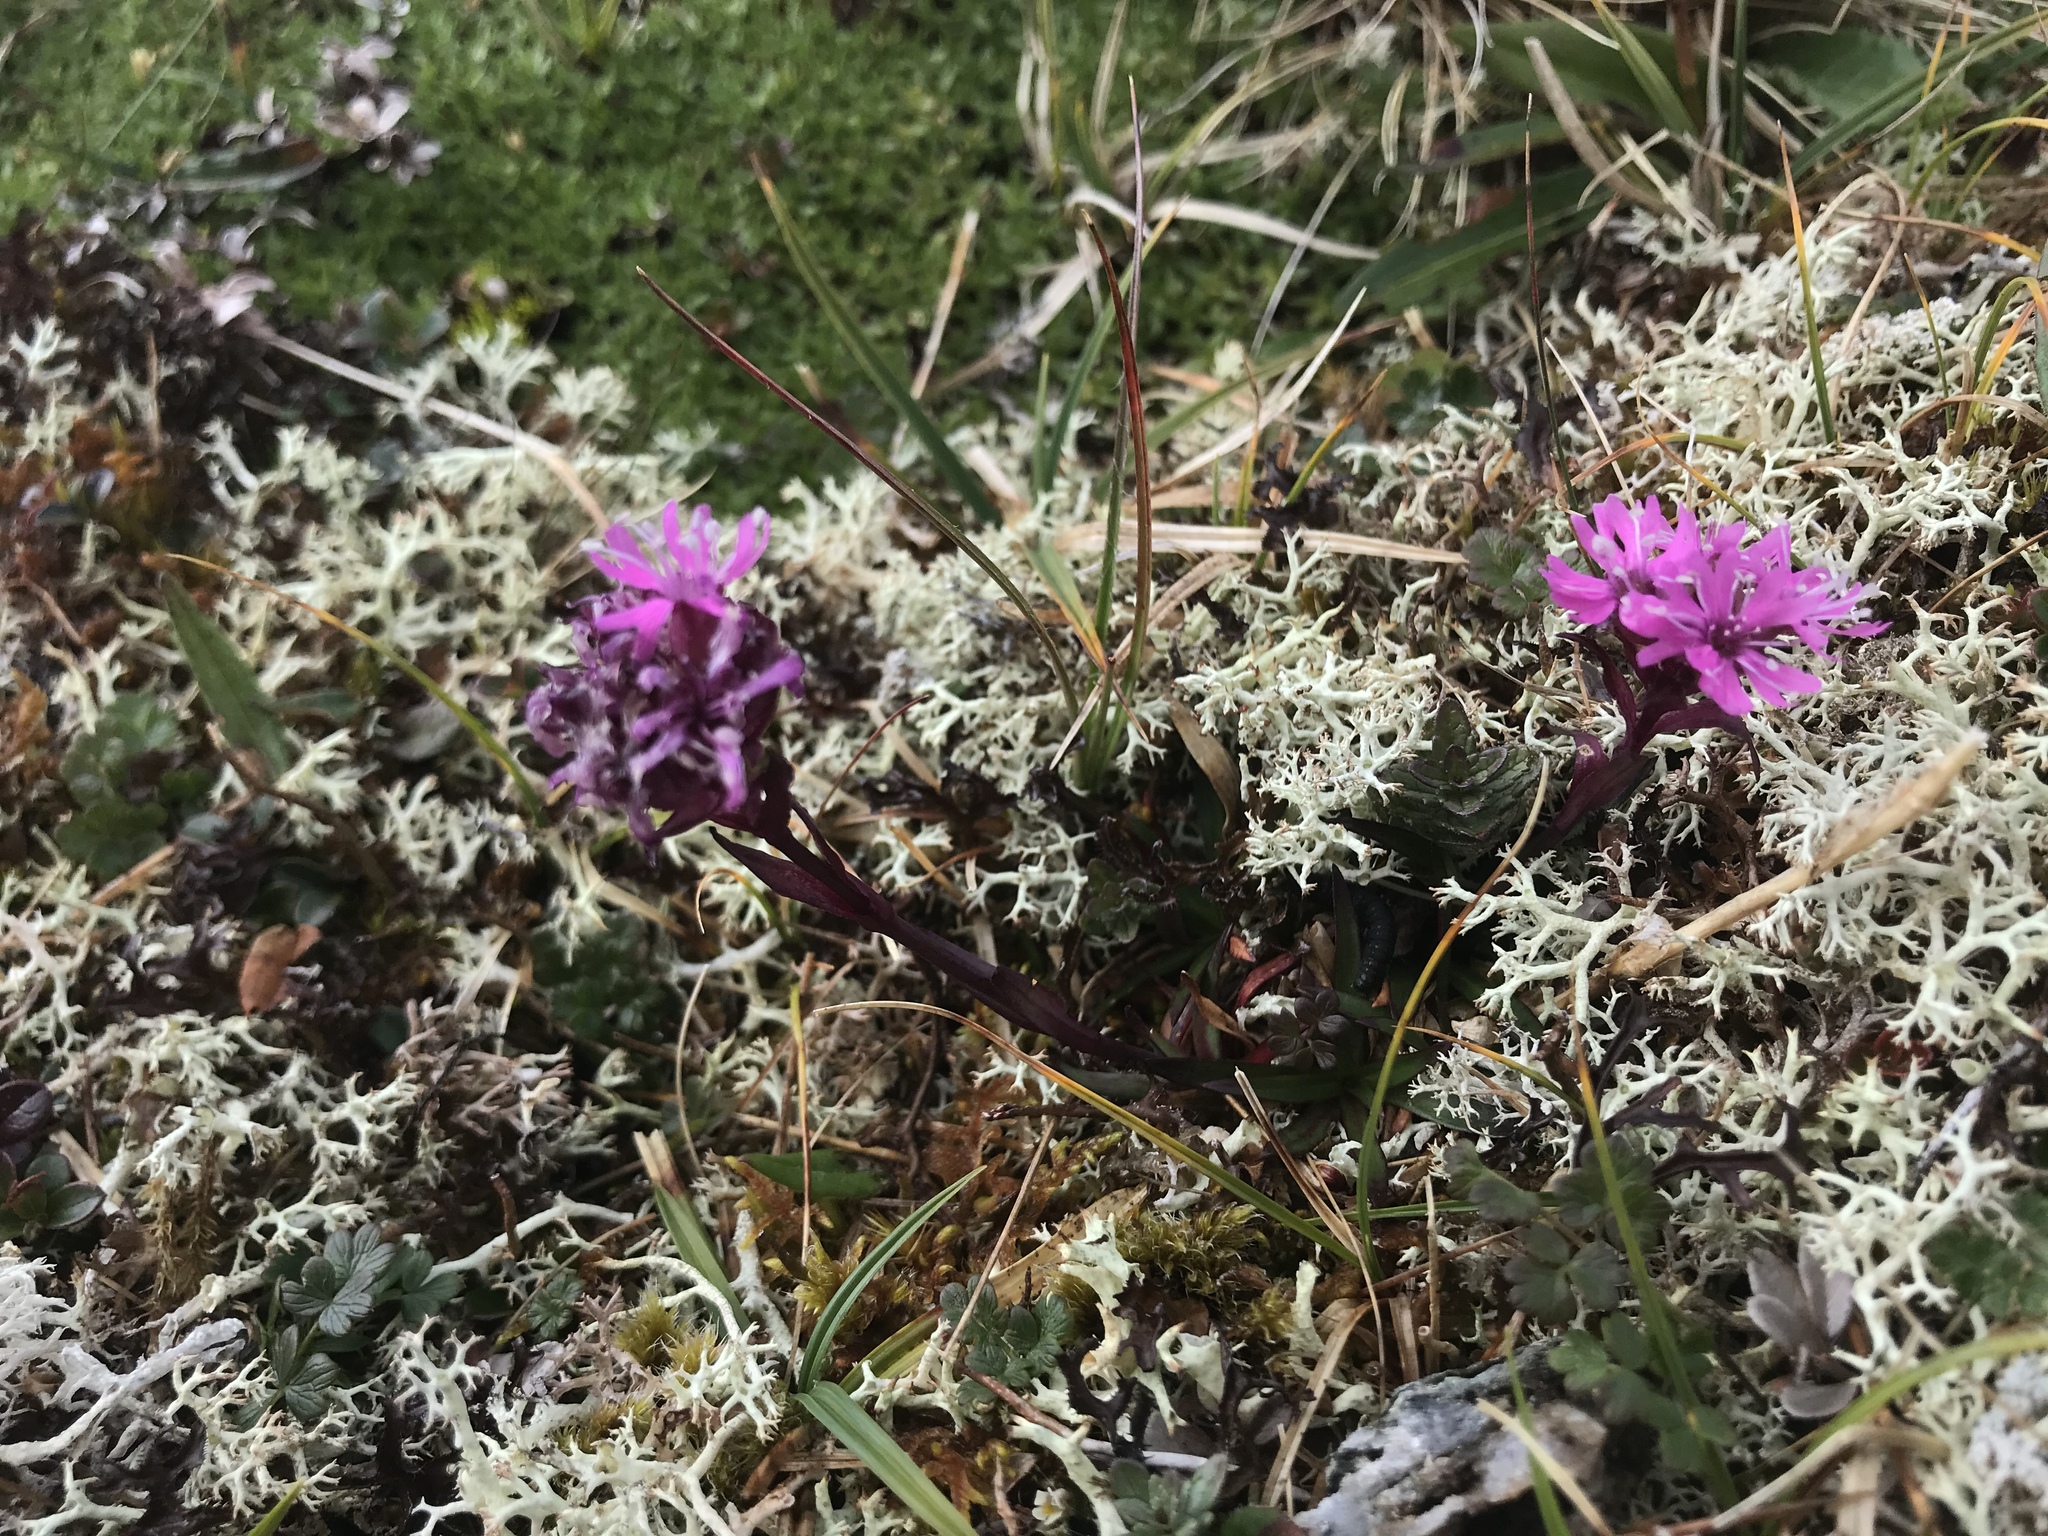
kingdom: Plantae
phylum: Tracheophyta
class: Magnoliopsida
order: Caryophyllales
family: Caryophyllaceae
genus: Viscaria
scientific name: Viscaria alpina
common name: Alpine campion
